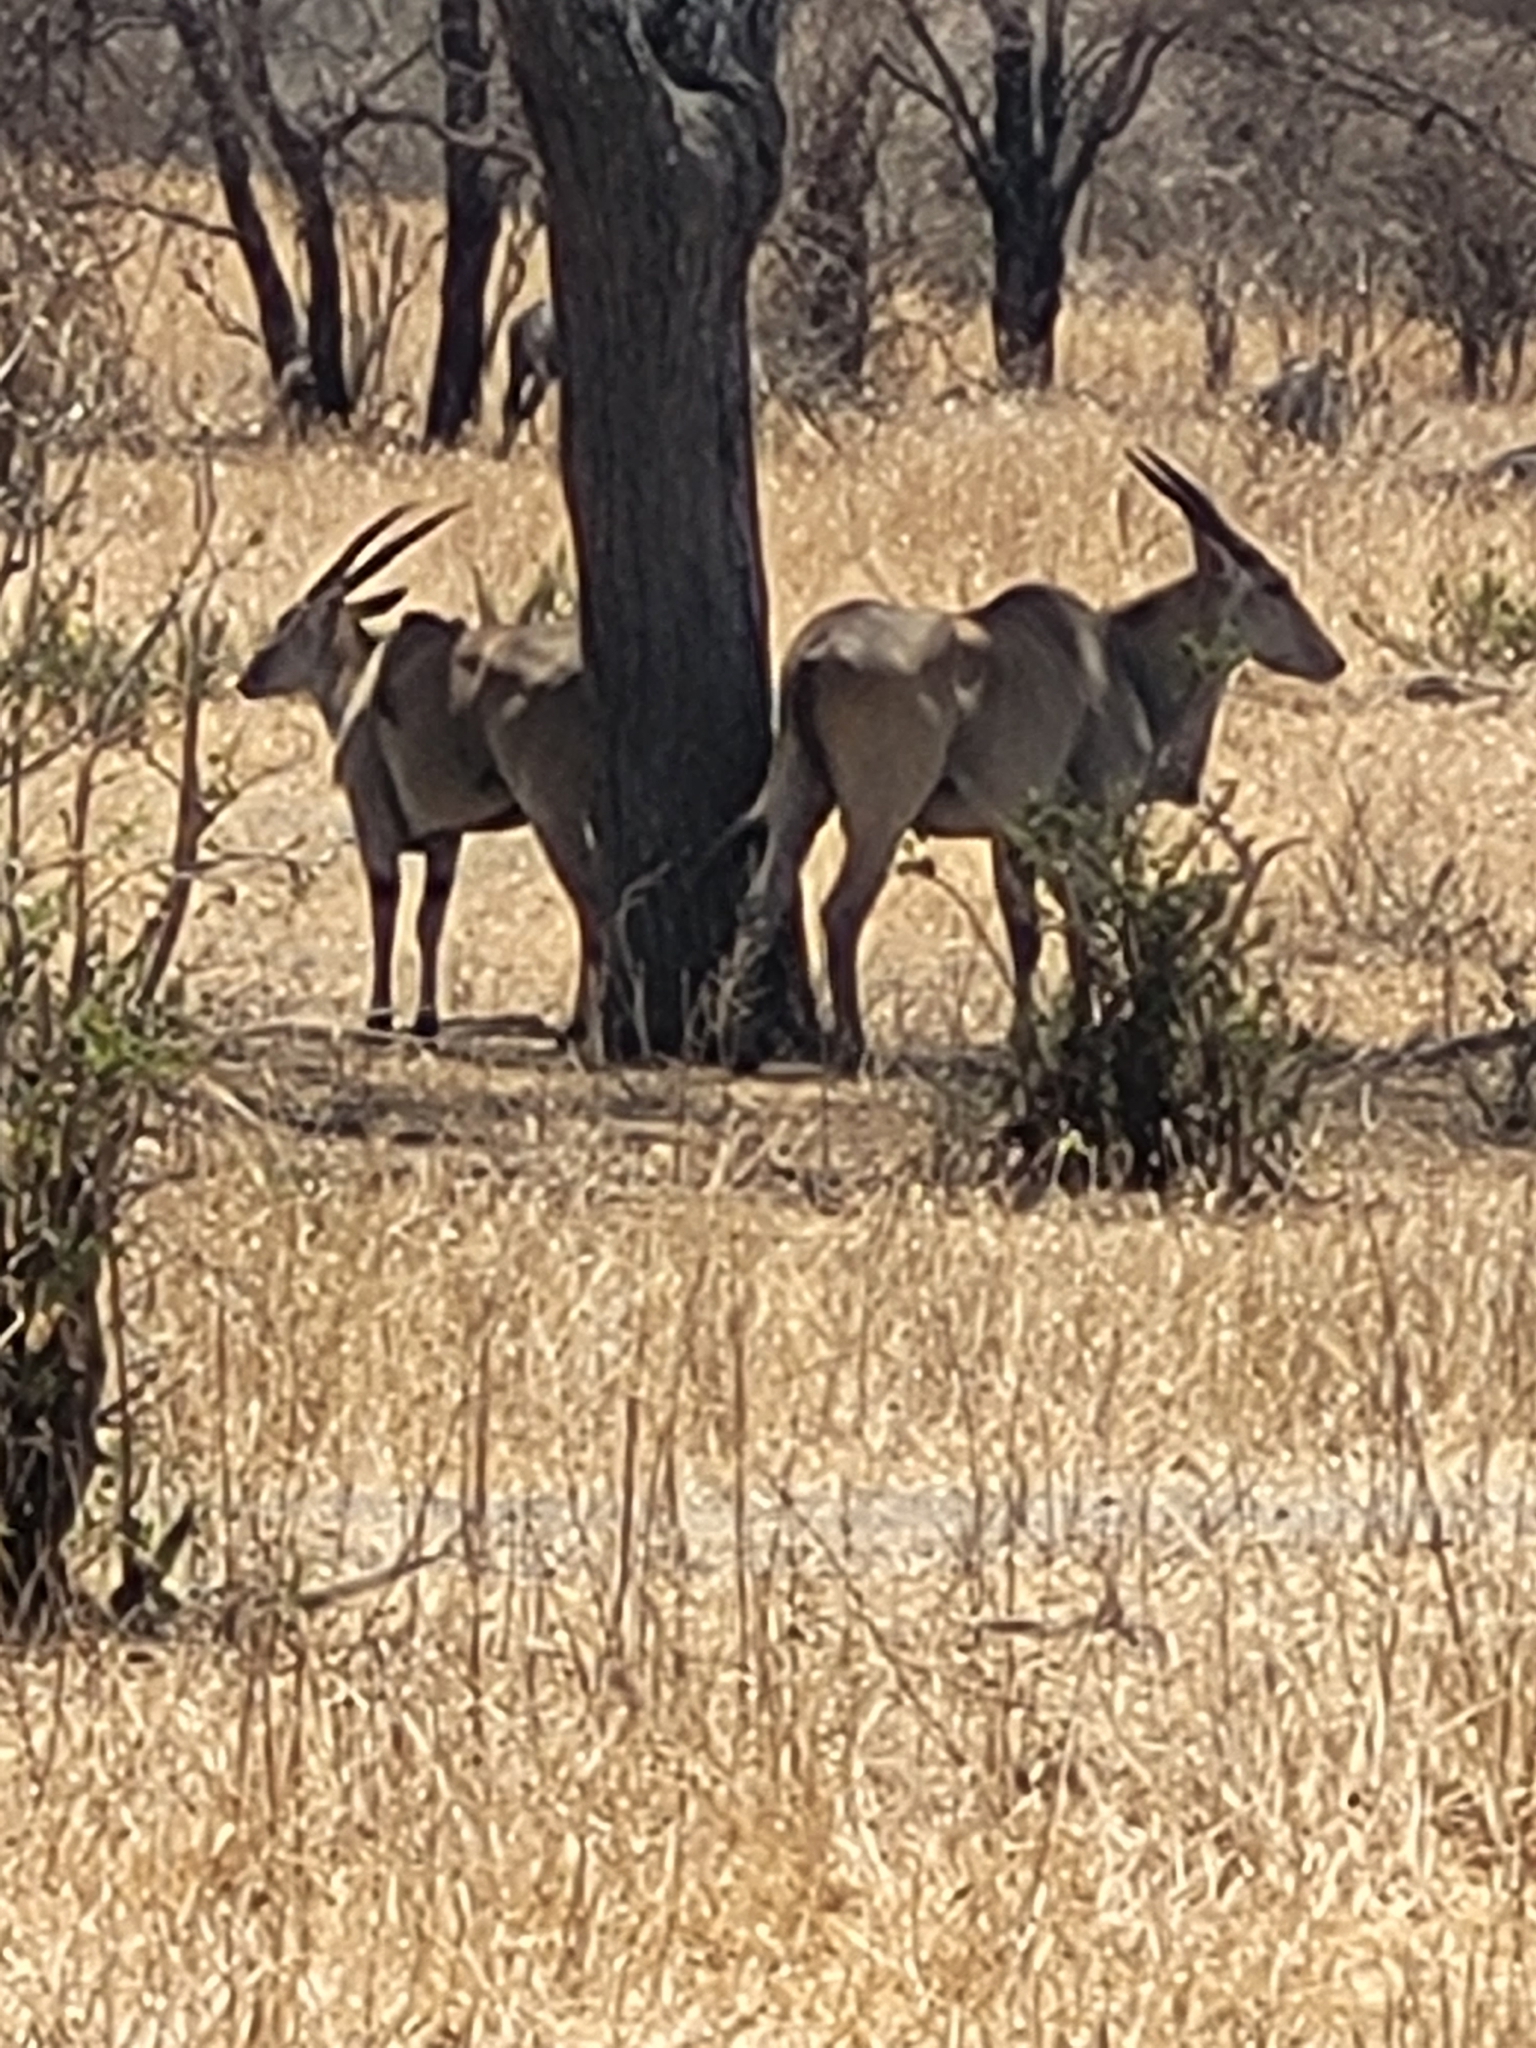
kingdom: Animalia
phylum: Chordata
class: Mammalia
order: Artiodactyla
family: Bovidae
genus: Taurotragus
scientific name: Taurotragus oryx
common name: Common eland
